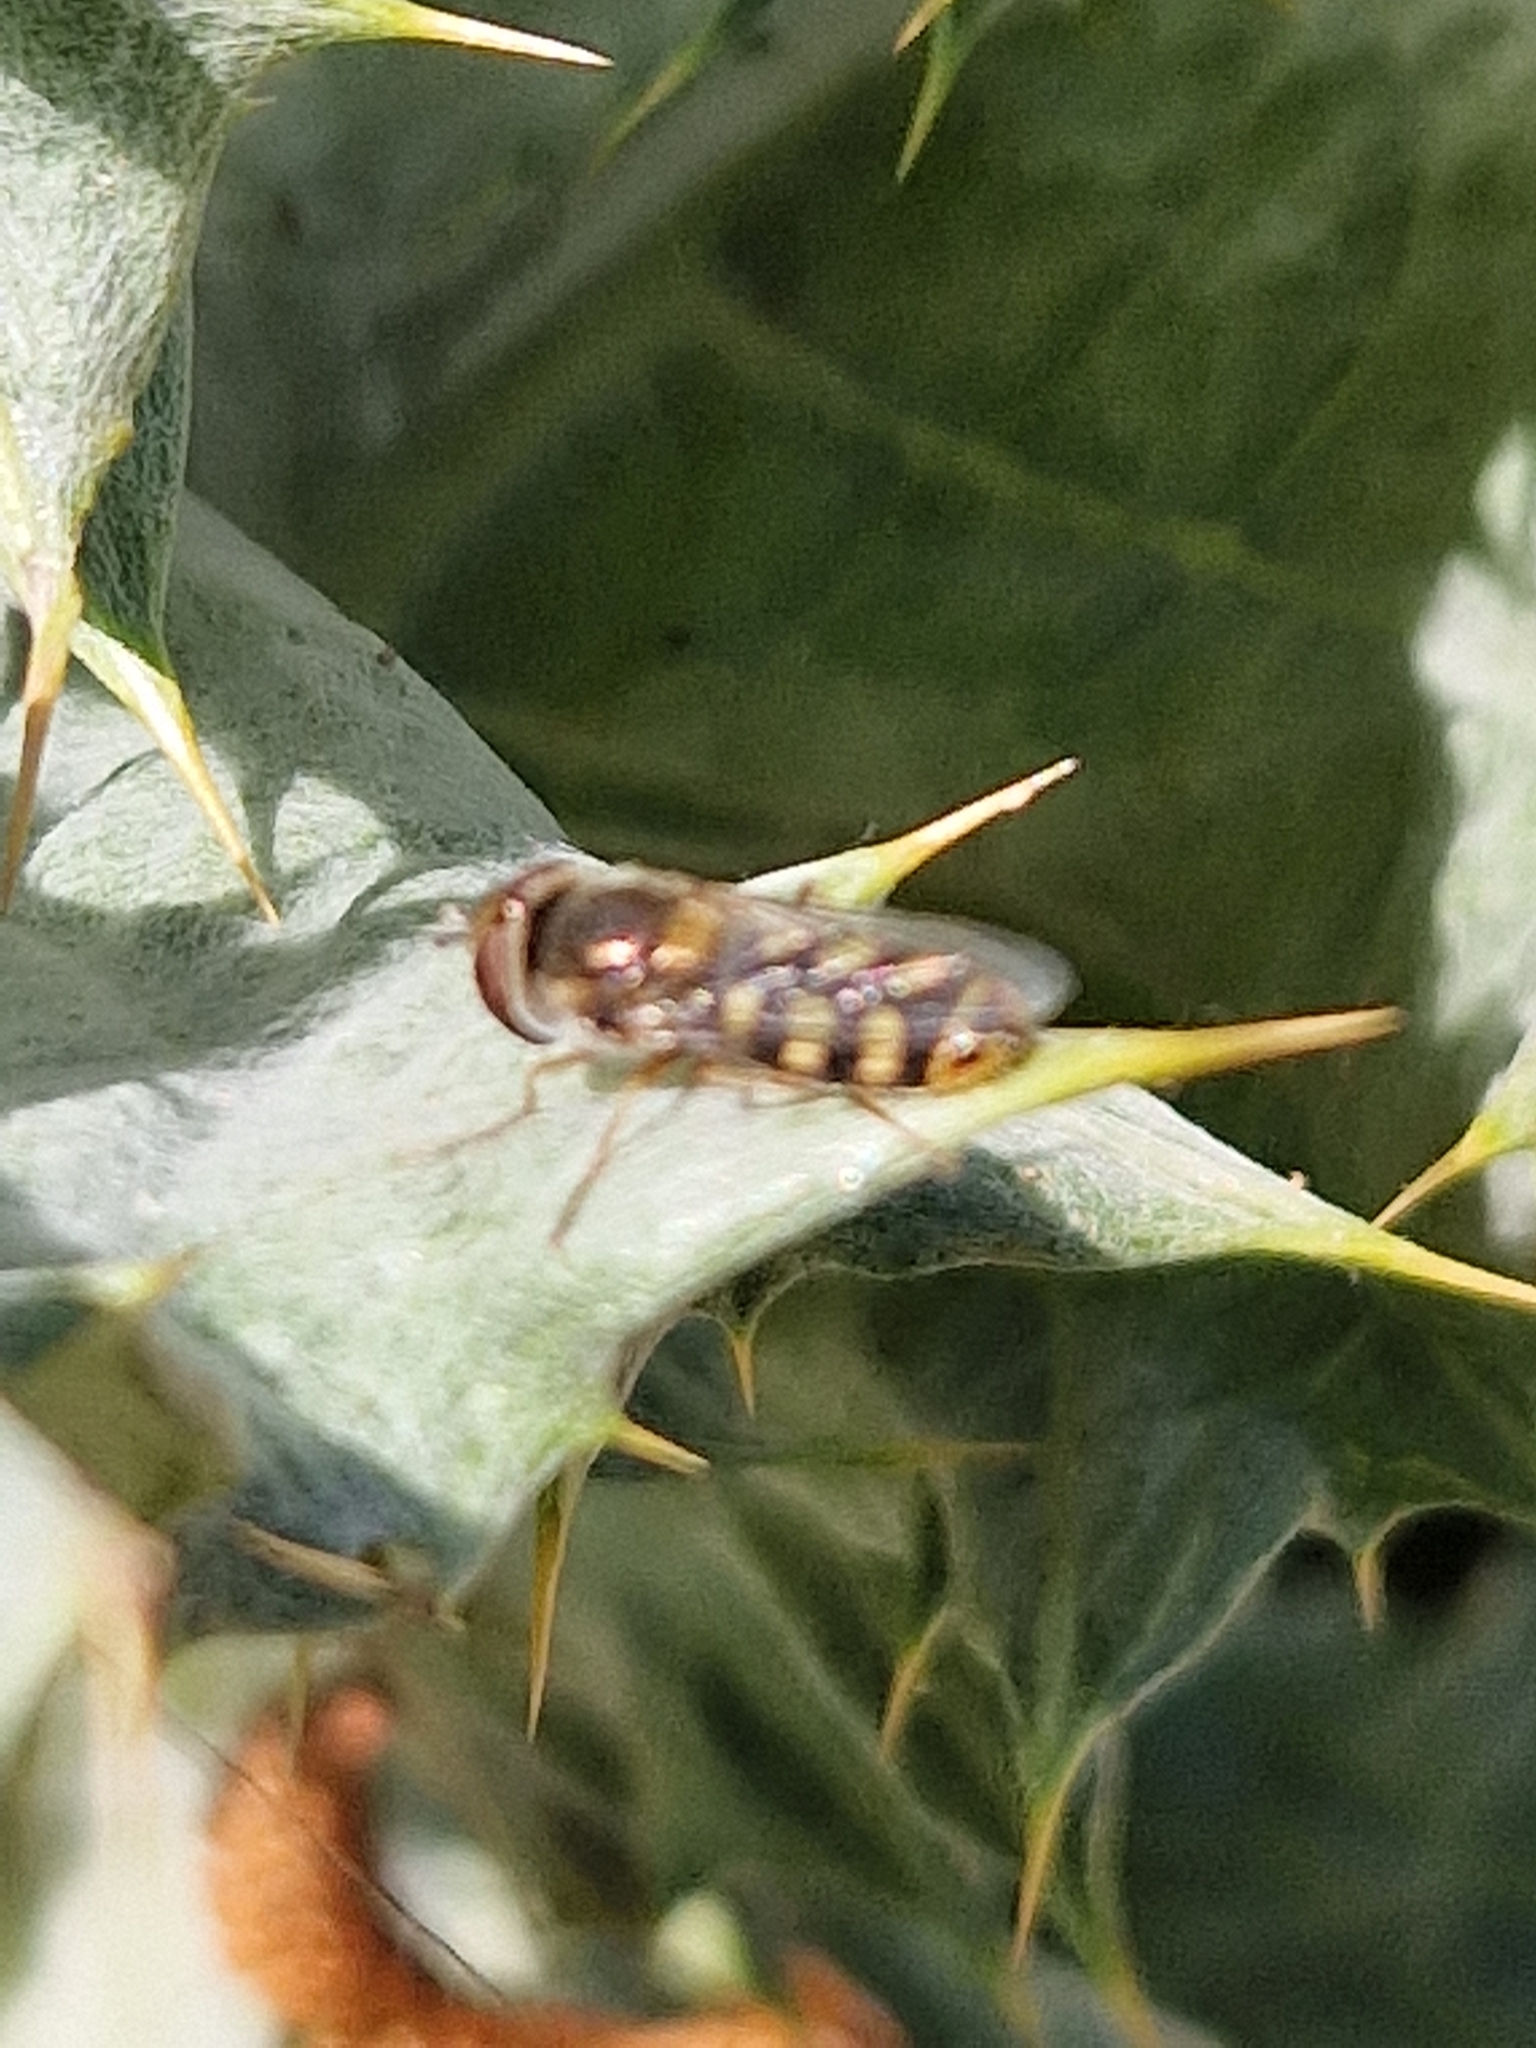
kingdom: Animalia
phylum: Arthropoda
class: Insecta
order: Diptera
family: Syrphidae
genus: Austroscaeva
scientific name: Austroscaeva occidentalis
